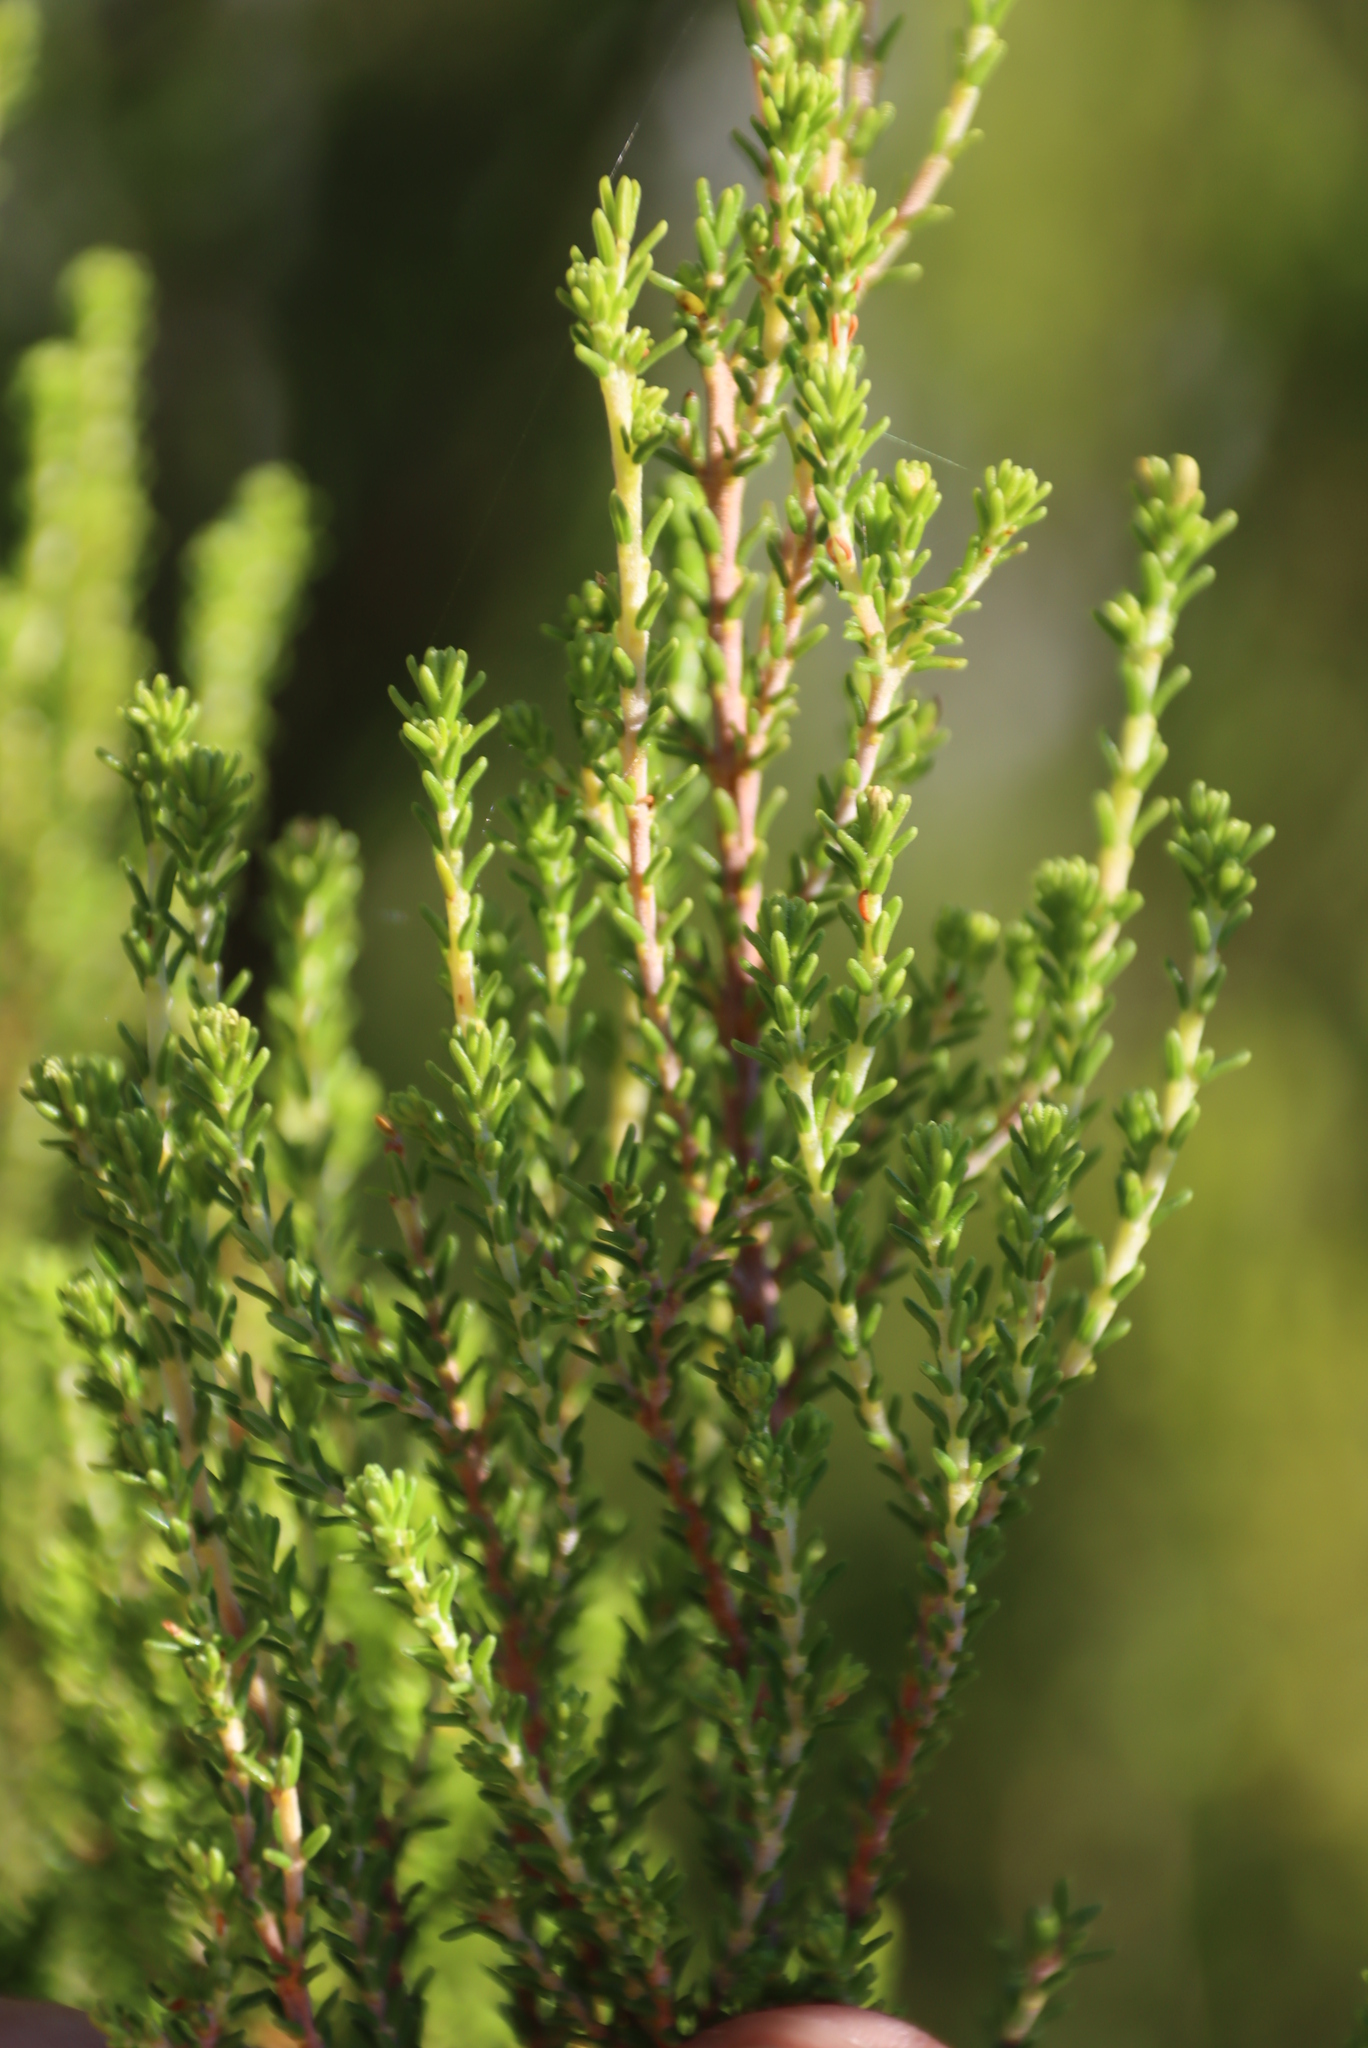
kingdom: Plantae
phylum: Tracheophyta
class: Magnoliopsida
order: Ericales
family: Ericaceae
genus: Erica
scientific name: Erica tristis
